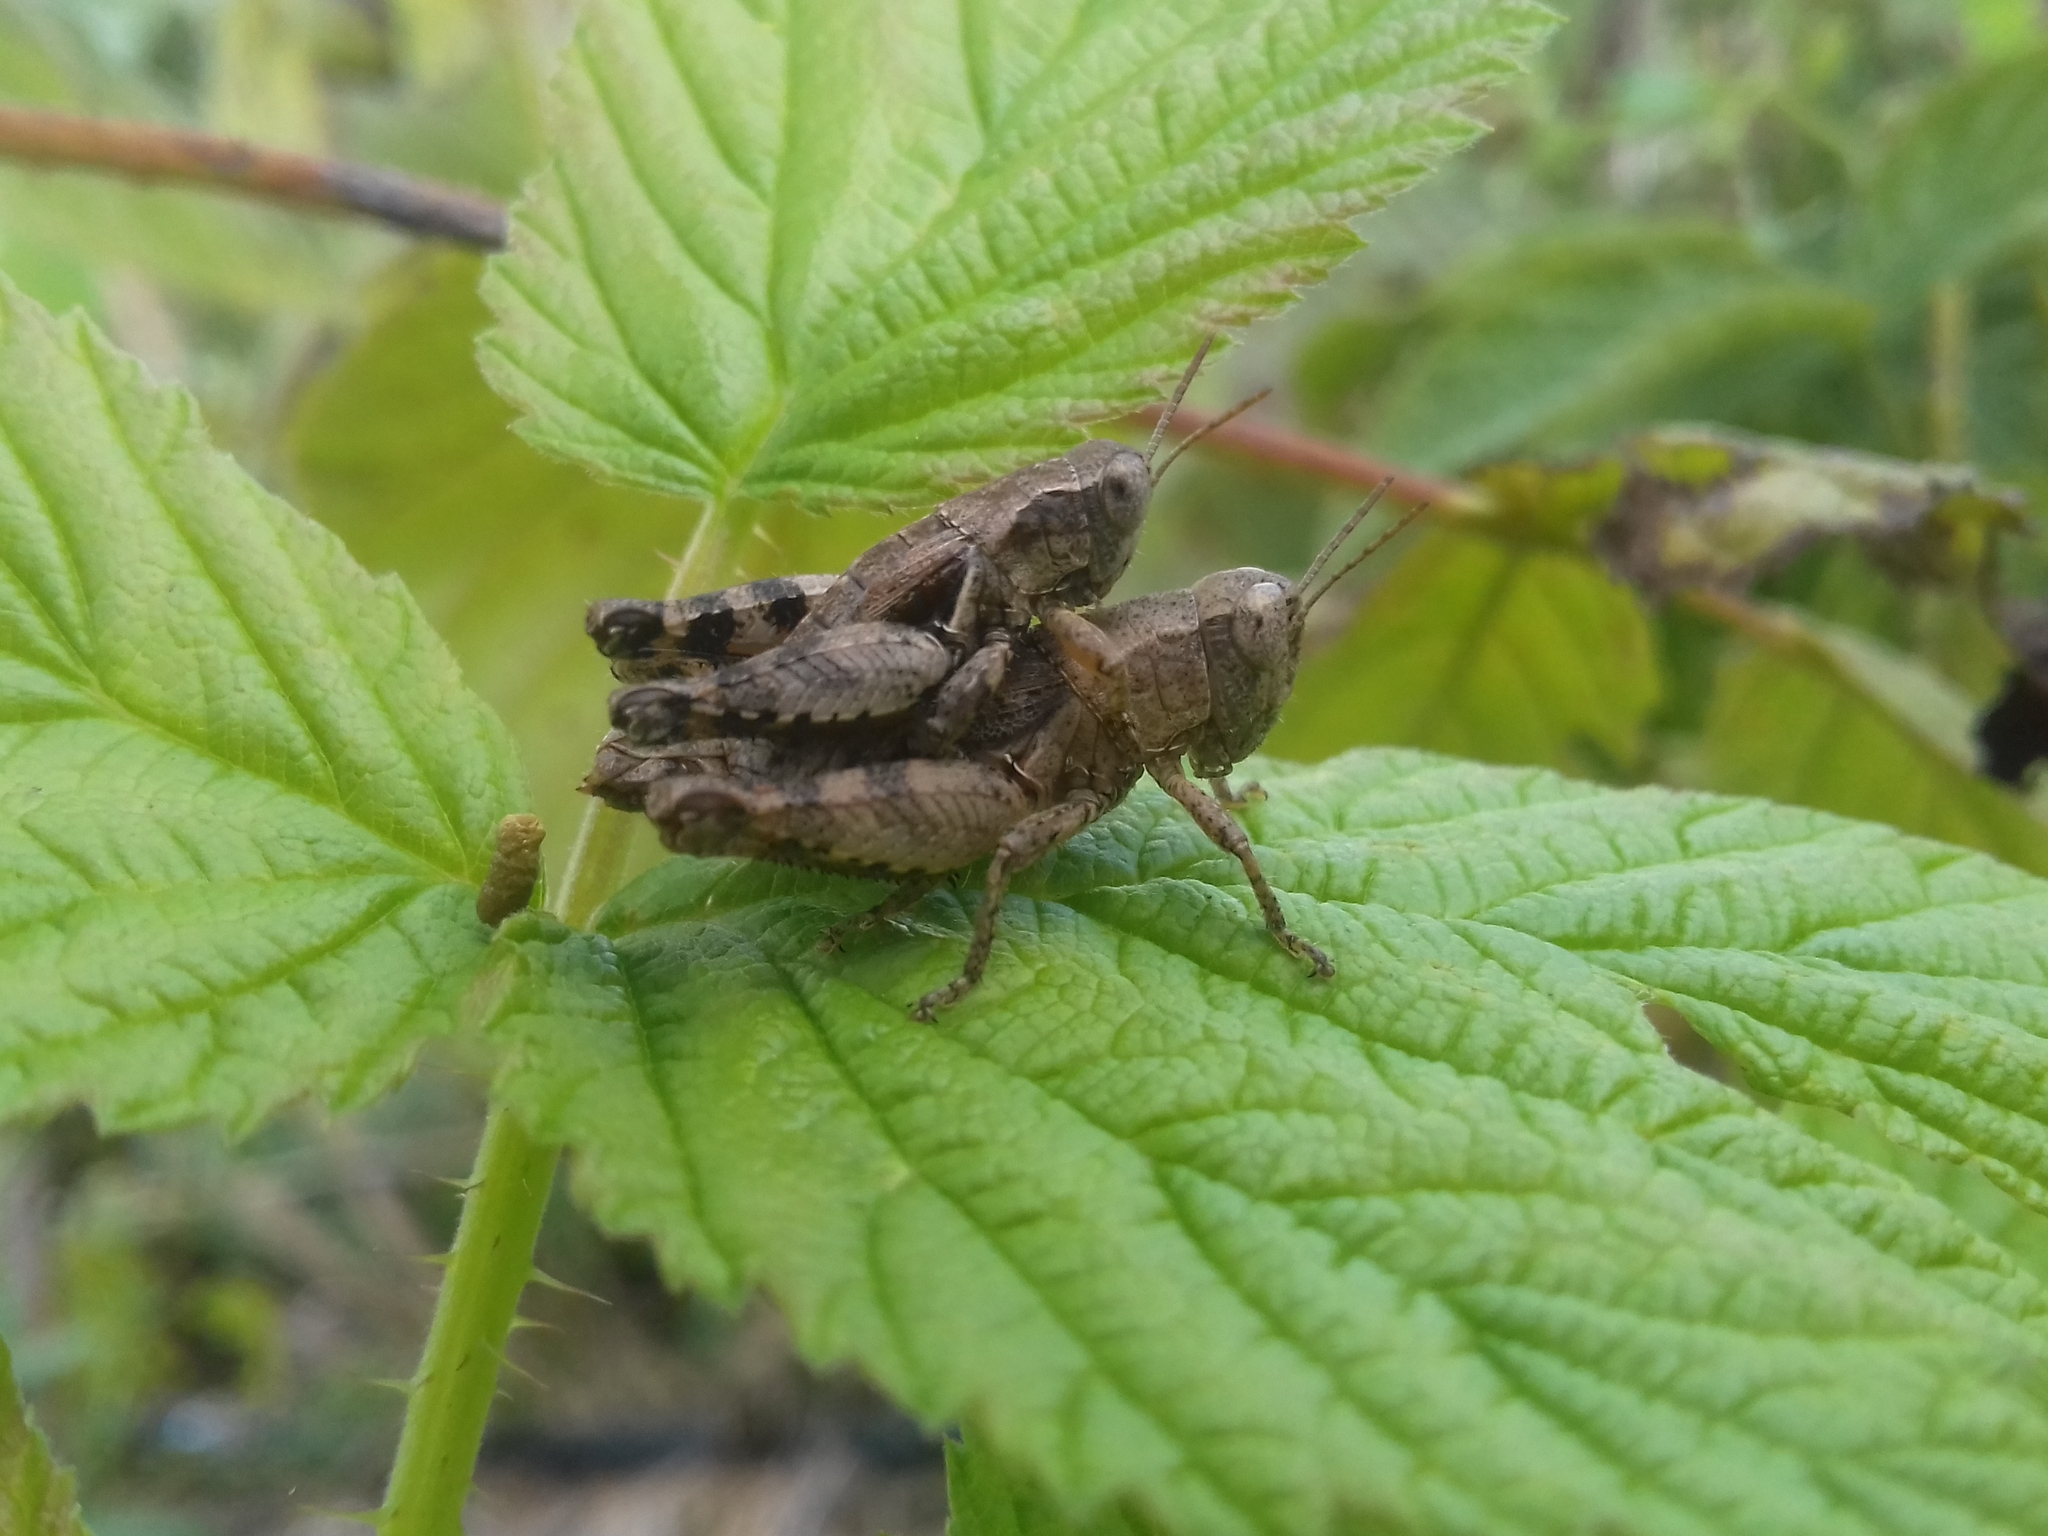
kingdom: Animalia
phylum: Arthropoda
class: Insecta
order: Orthoptera
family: Acrididae
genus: Pezotettix
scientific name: Pezotettix giornae
